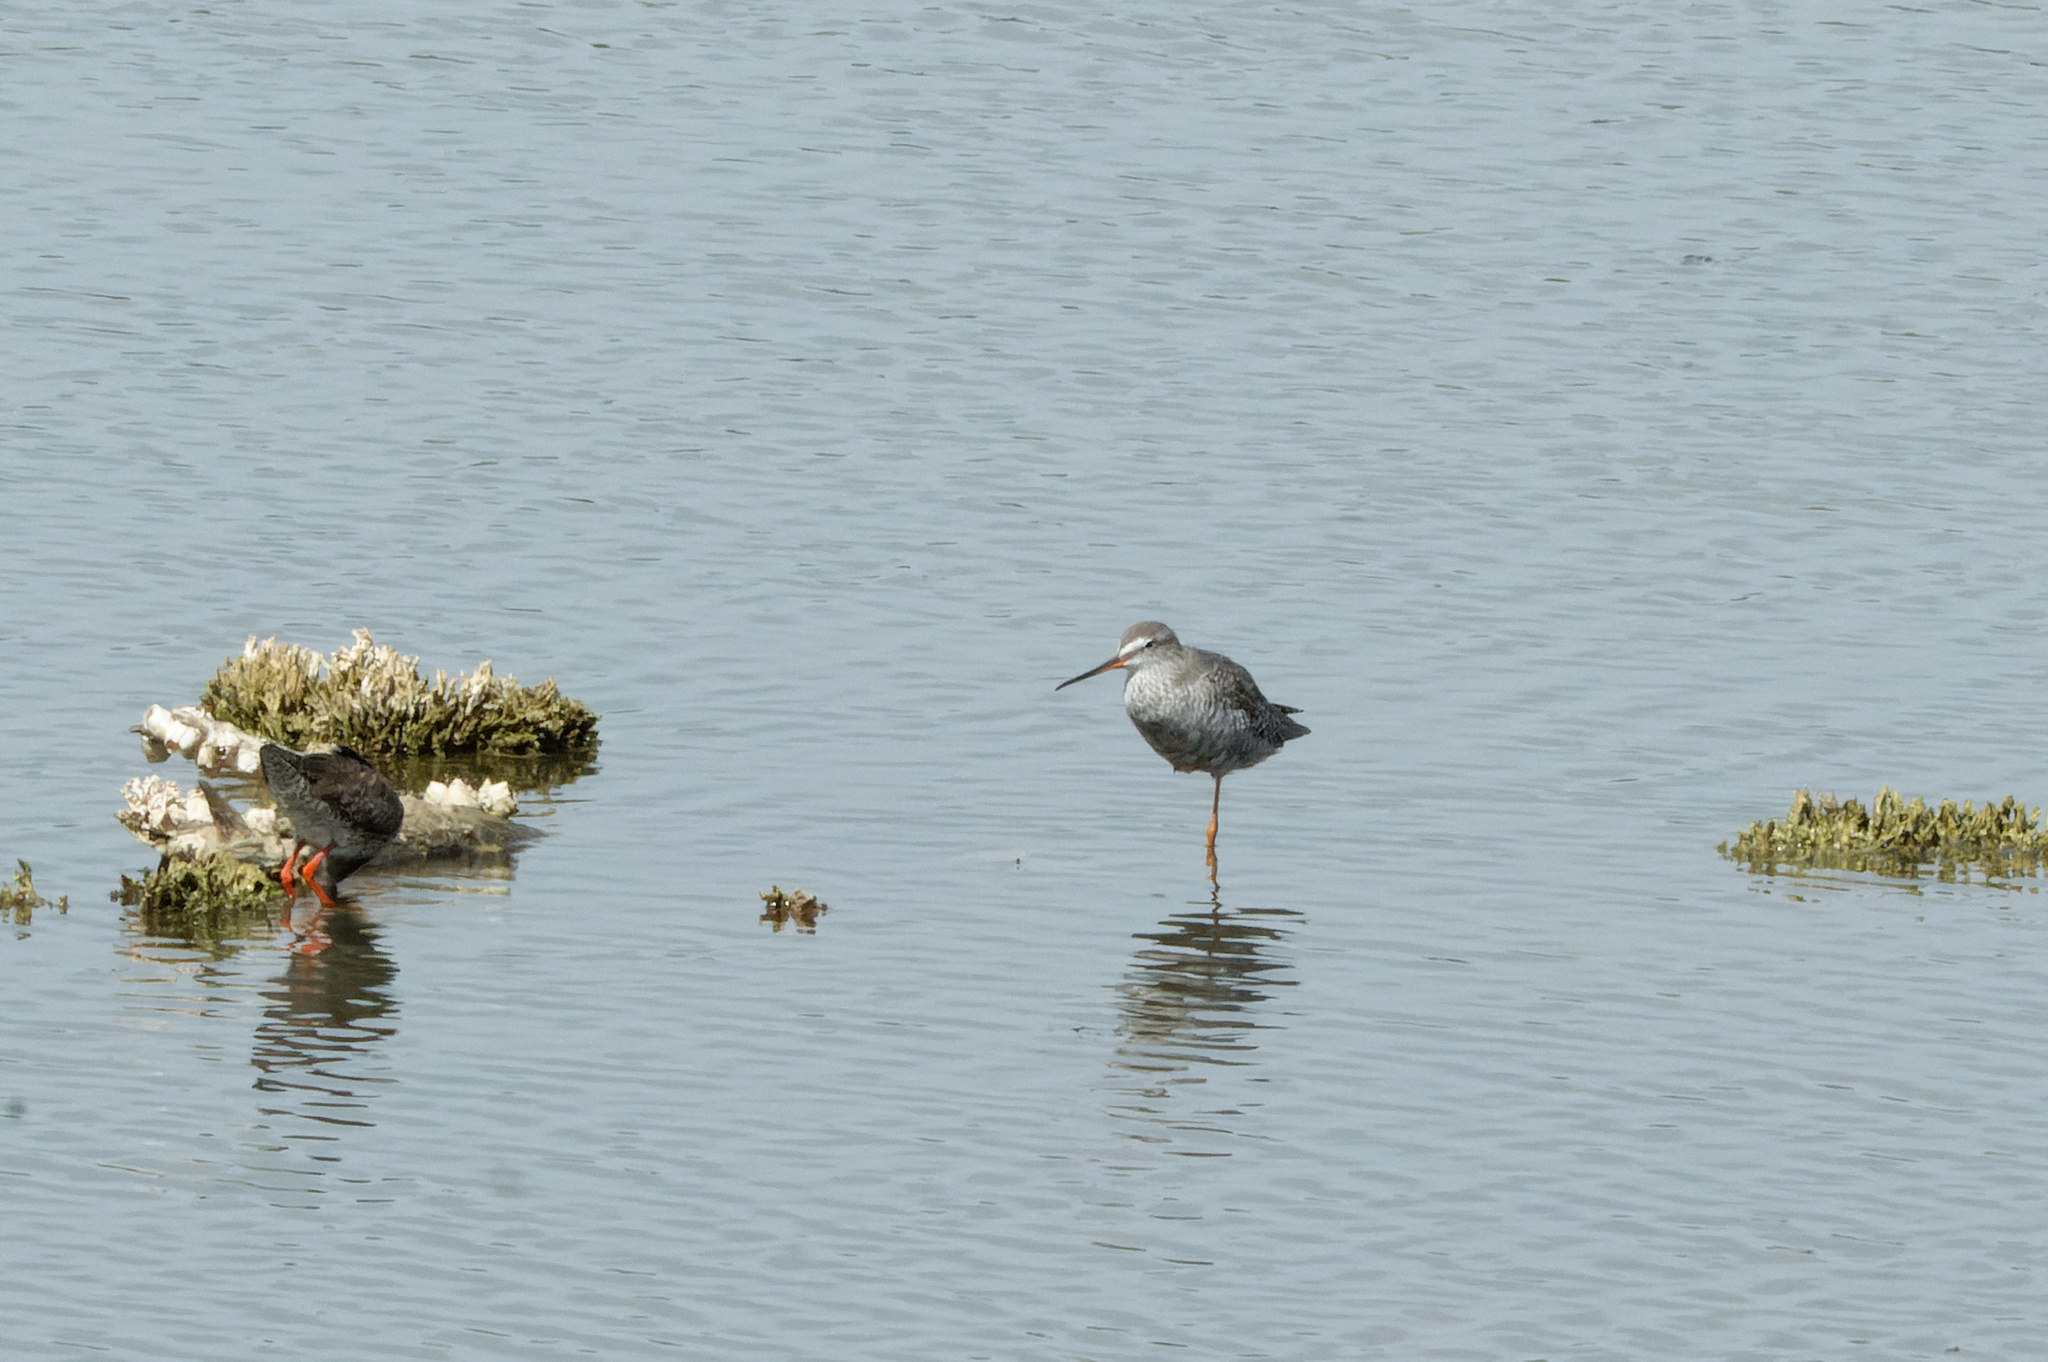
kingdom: Animalia
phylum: Chordata
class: Aves
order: Charadriiformes
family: Scolopacidae
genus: Tringa
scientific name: Tringa erythropus
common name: Spotted redshank
